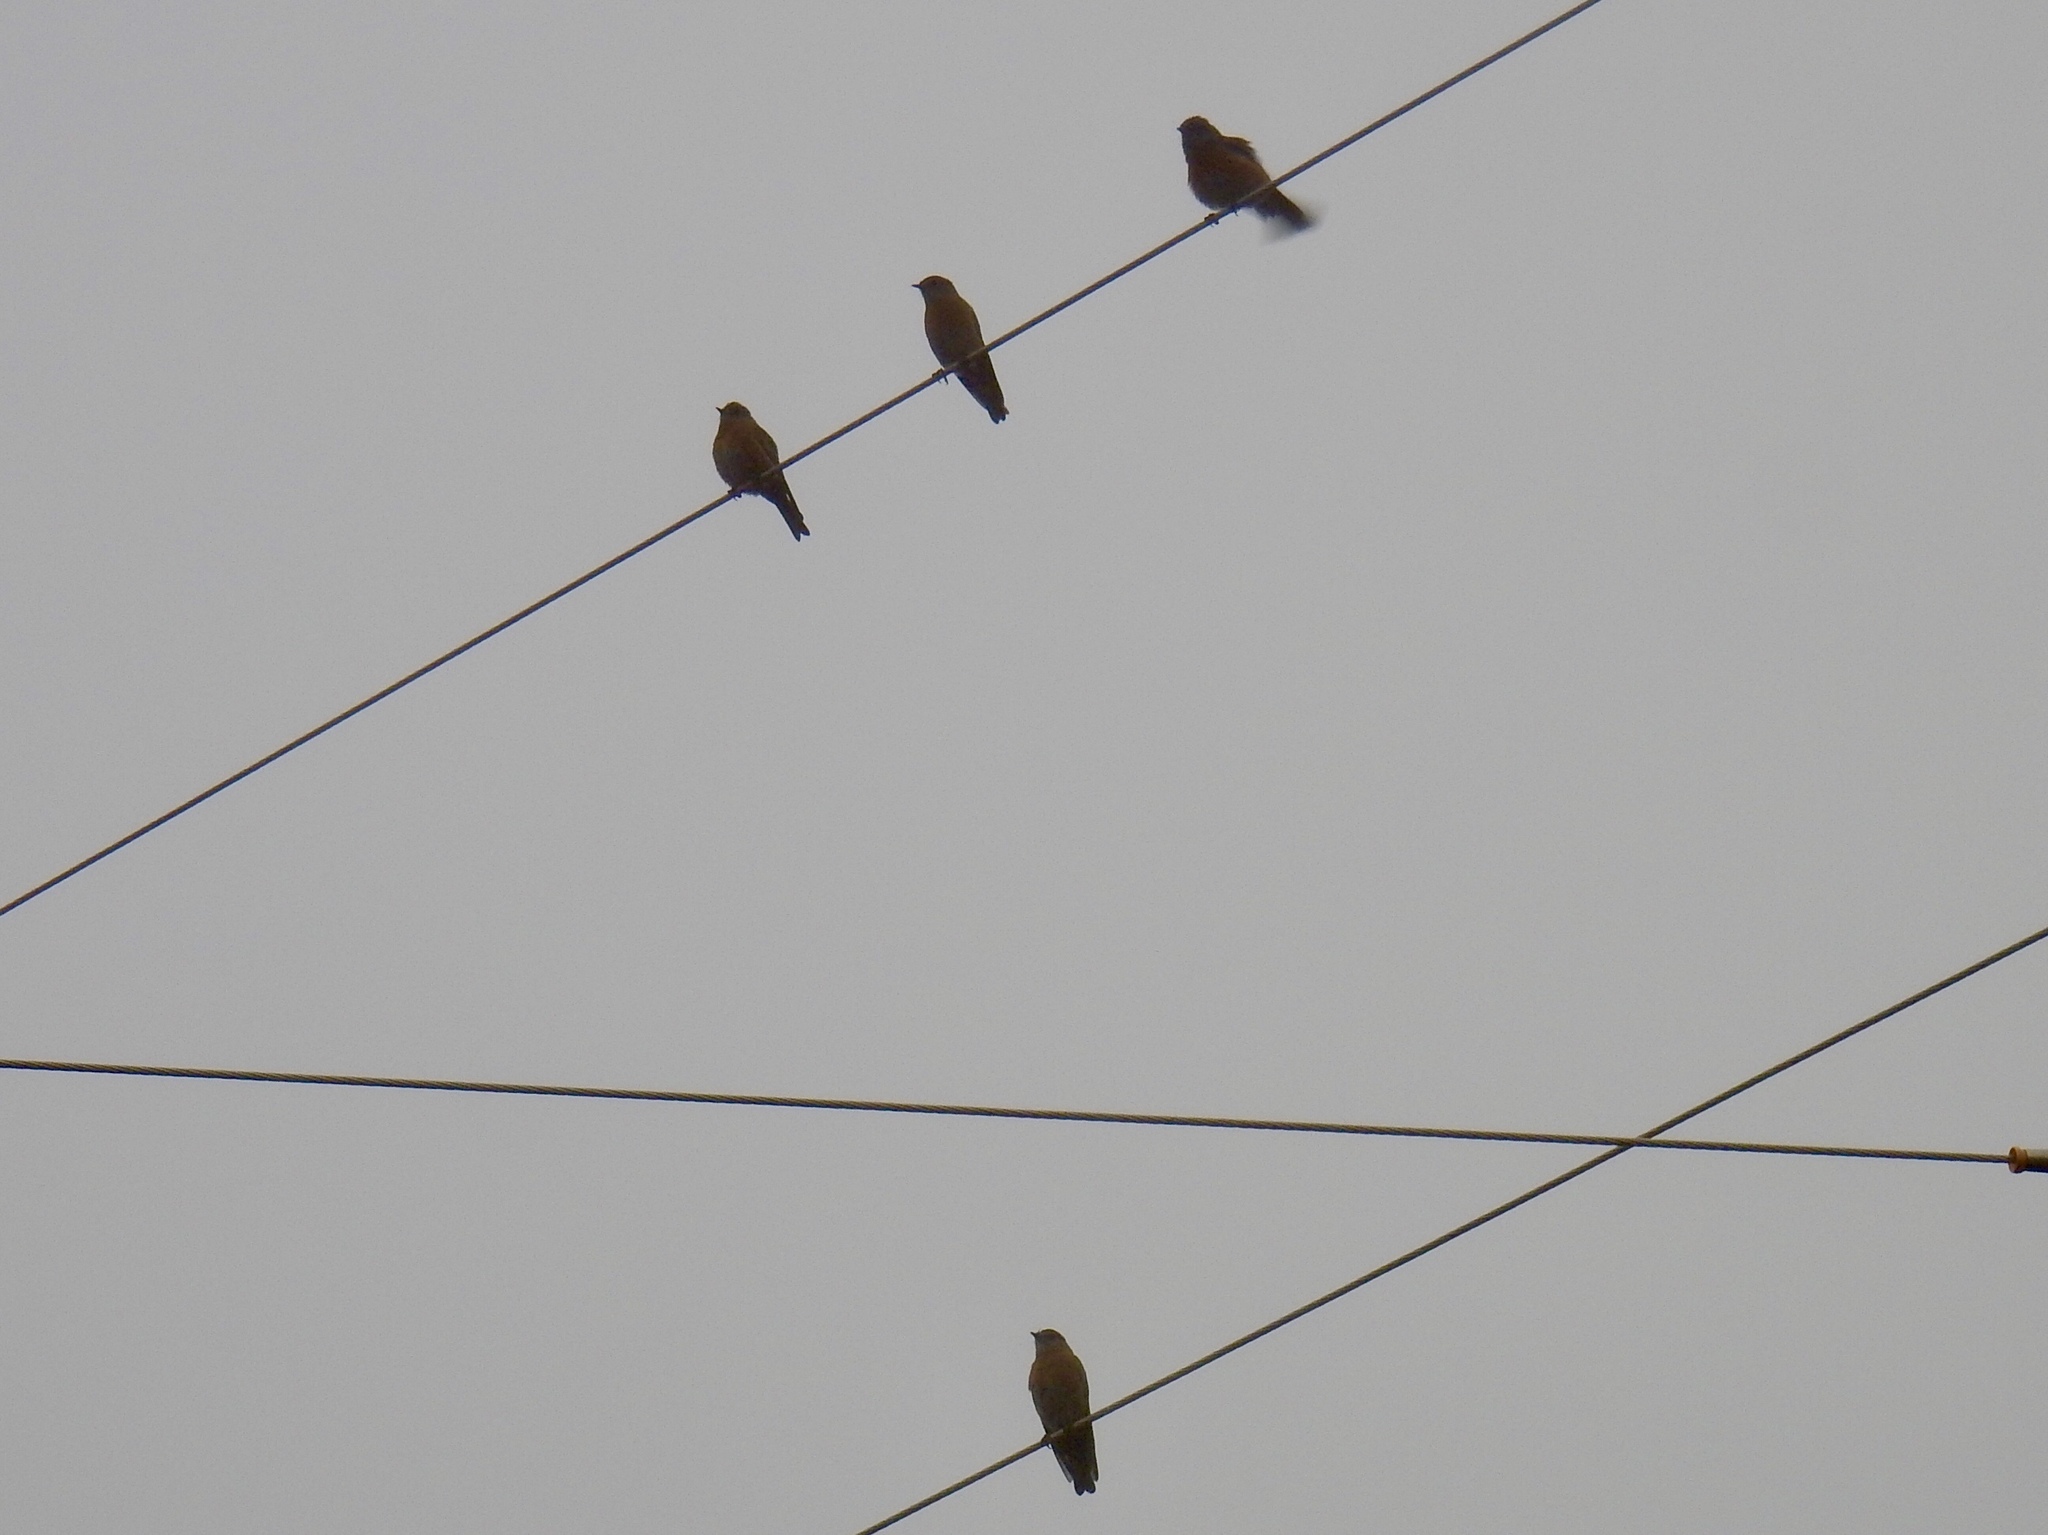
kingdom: Animalia
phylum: Chordata
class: Aves
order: Passeriformes
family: Turdidae
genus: Sialia
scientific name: Sialia mexicana
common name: Western bluebird
